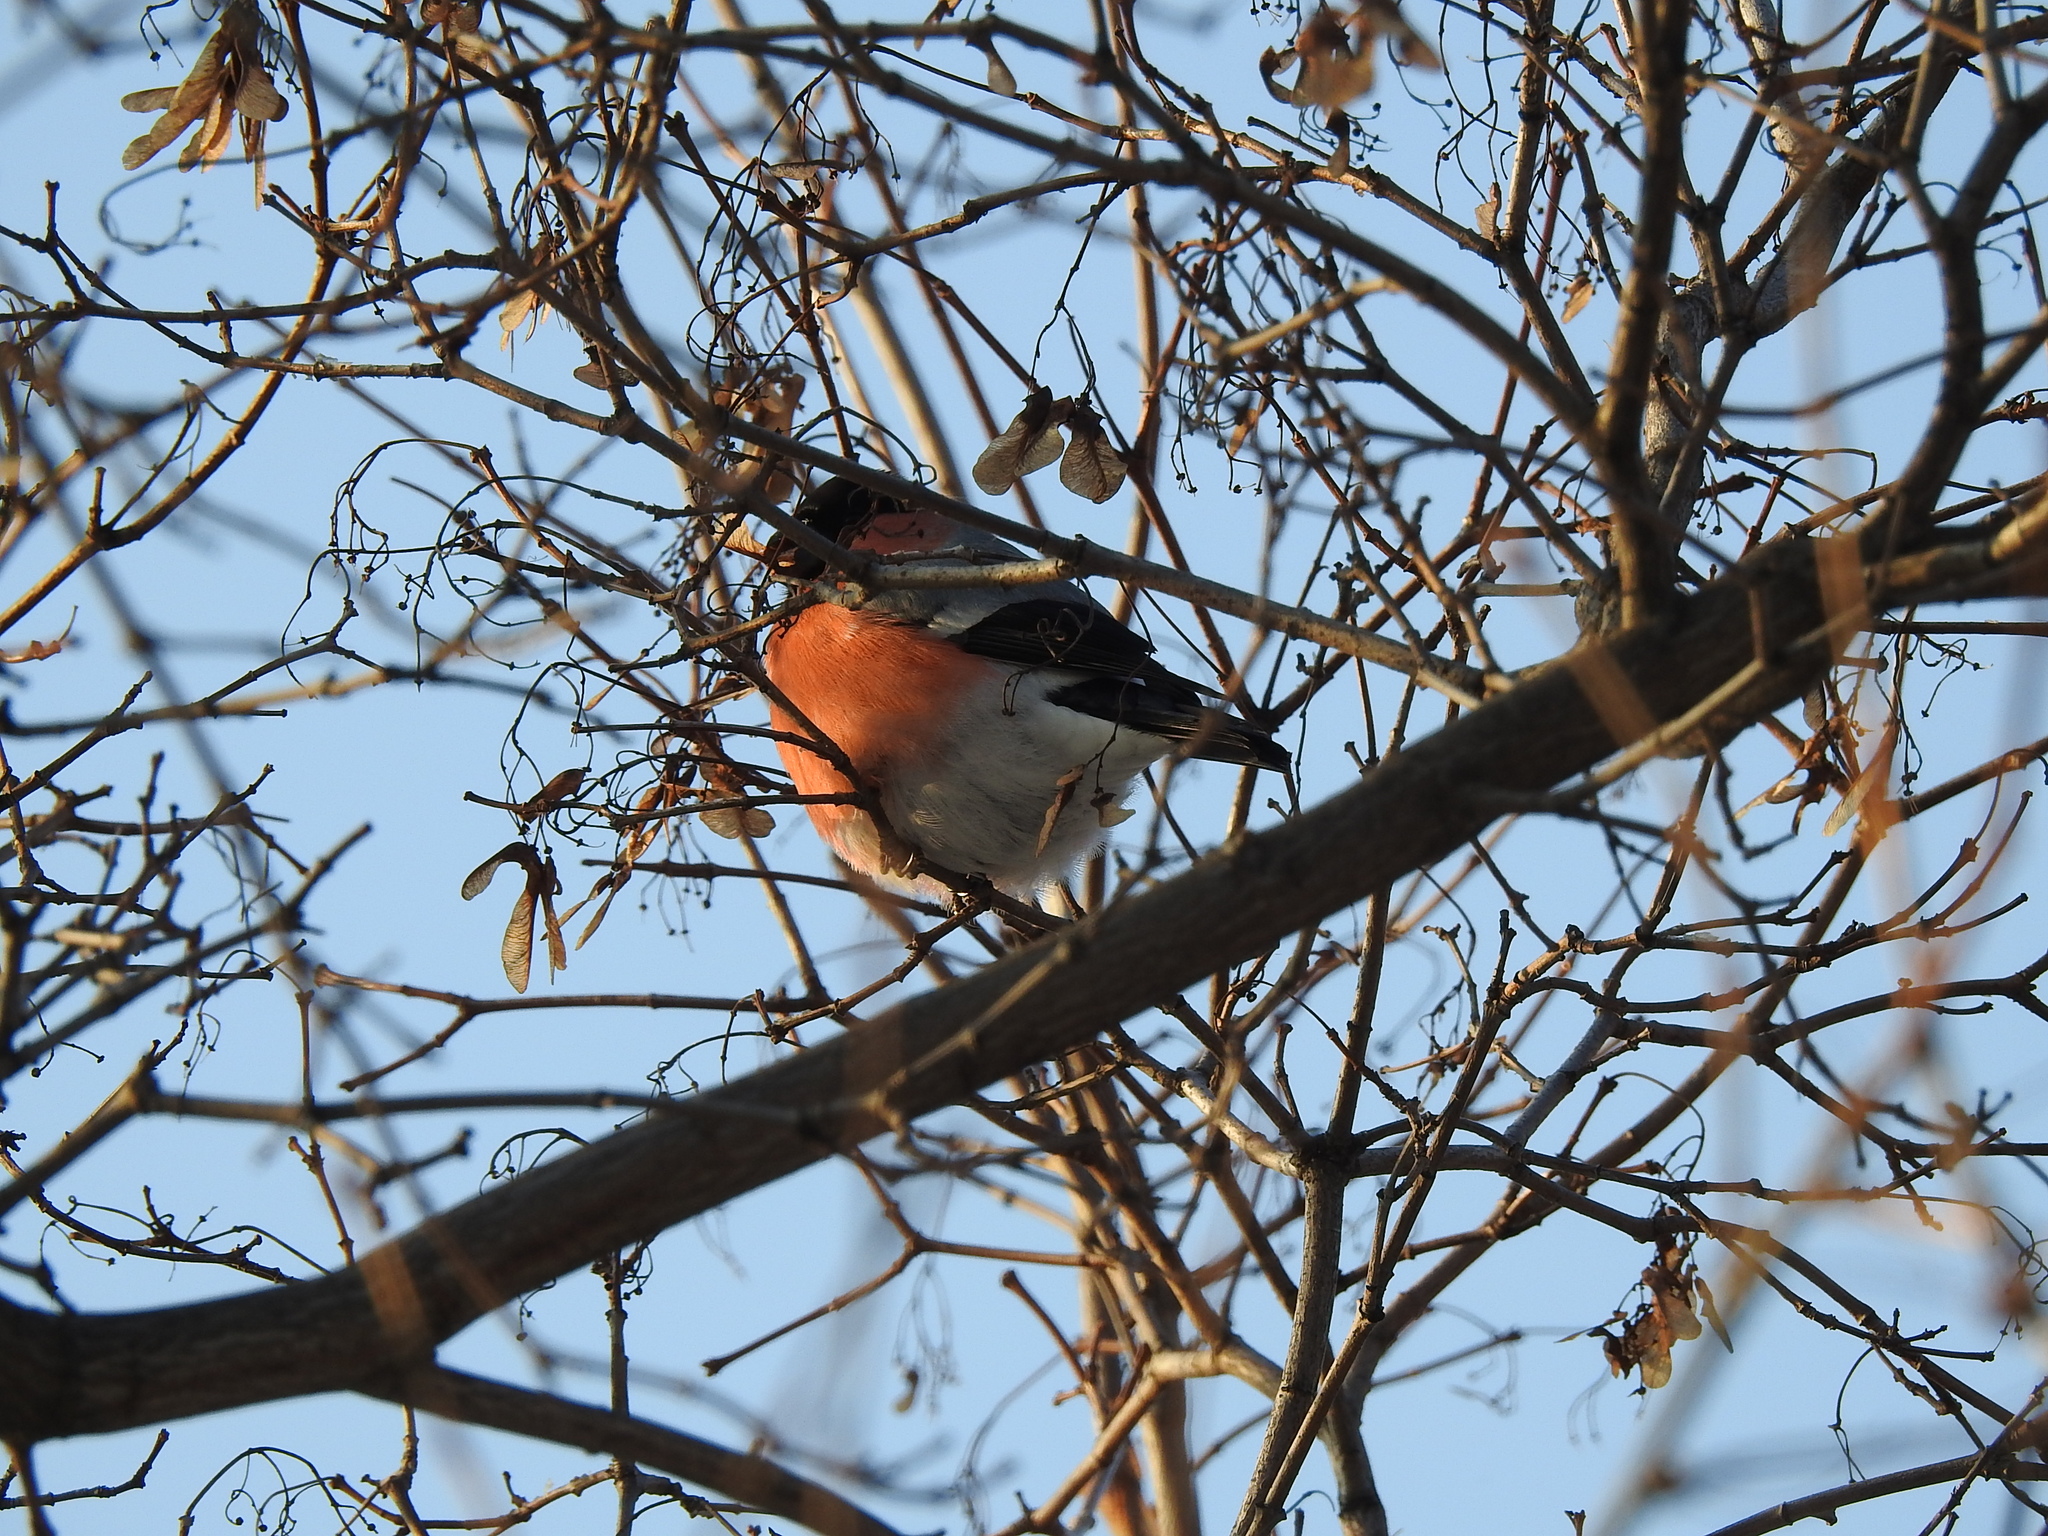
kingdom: Animalia
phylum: Chordata
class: Aves
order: Passeriformes
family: Fringillidae
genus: Pyrrhula
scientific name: Pyrrhula pyrrhula
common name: Eurasian bullfinch
